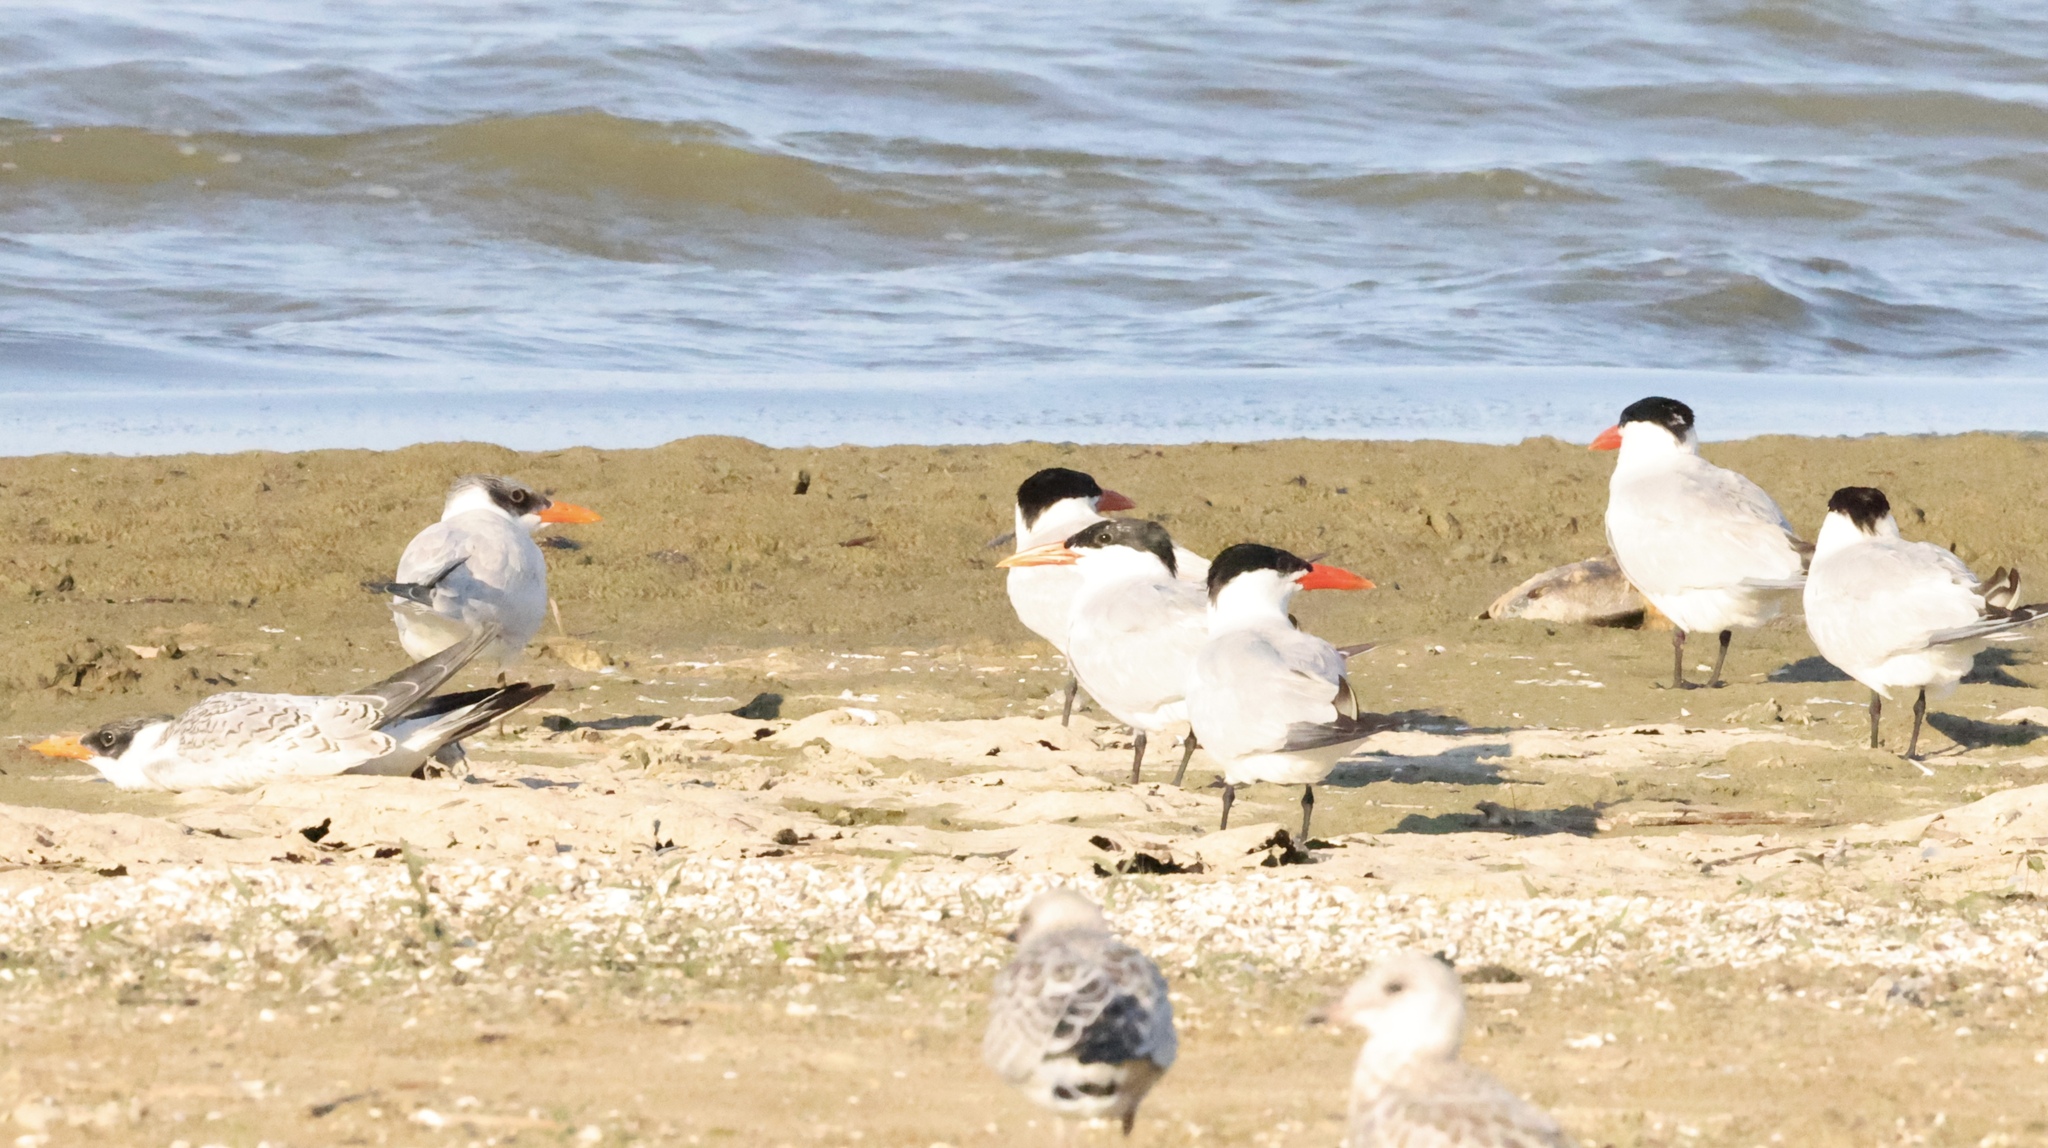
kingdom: Animalia
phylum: Chordata
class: Aves
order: Charadriiformes
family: Laridae
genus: Hydroprogne
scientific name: Hydroprogne caspia
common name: Caspian tern
